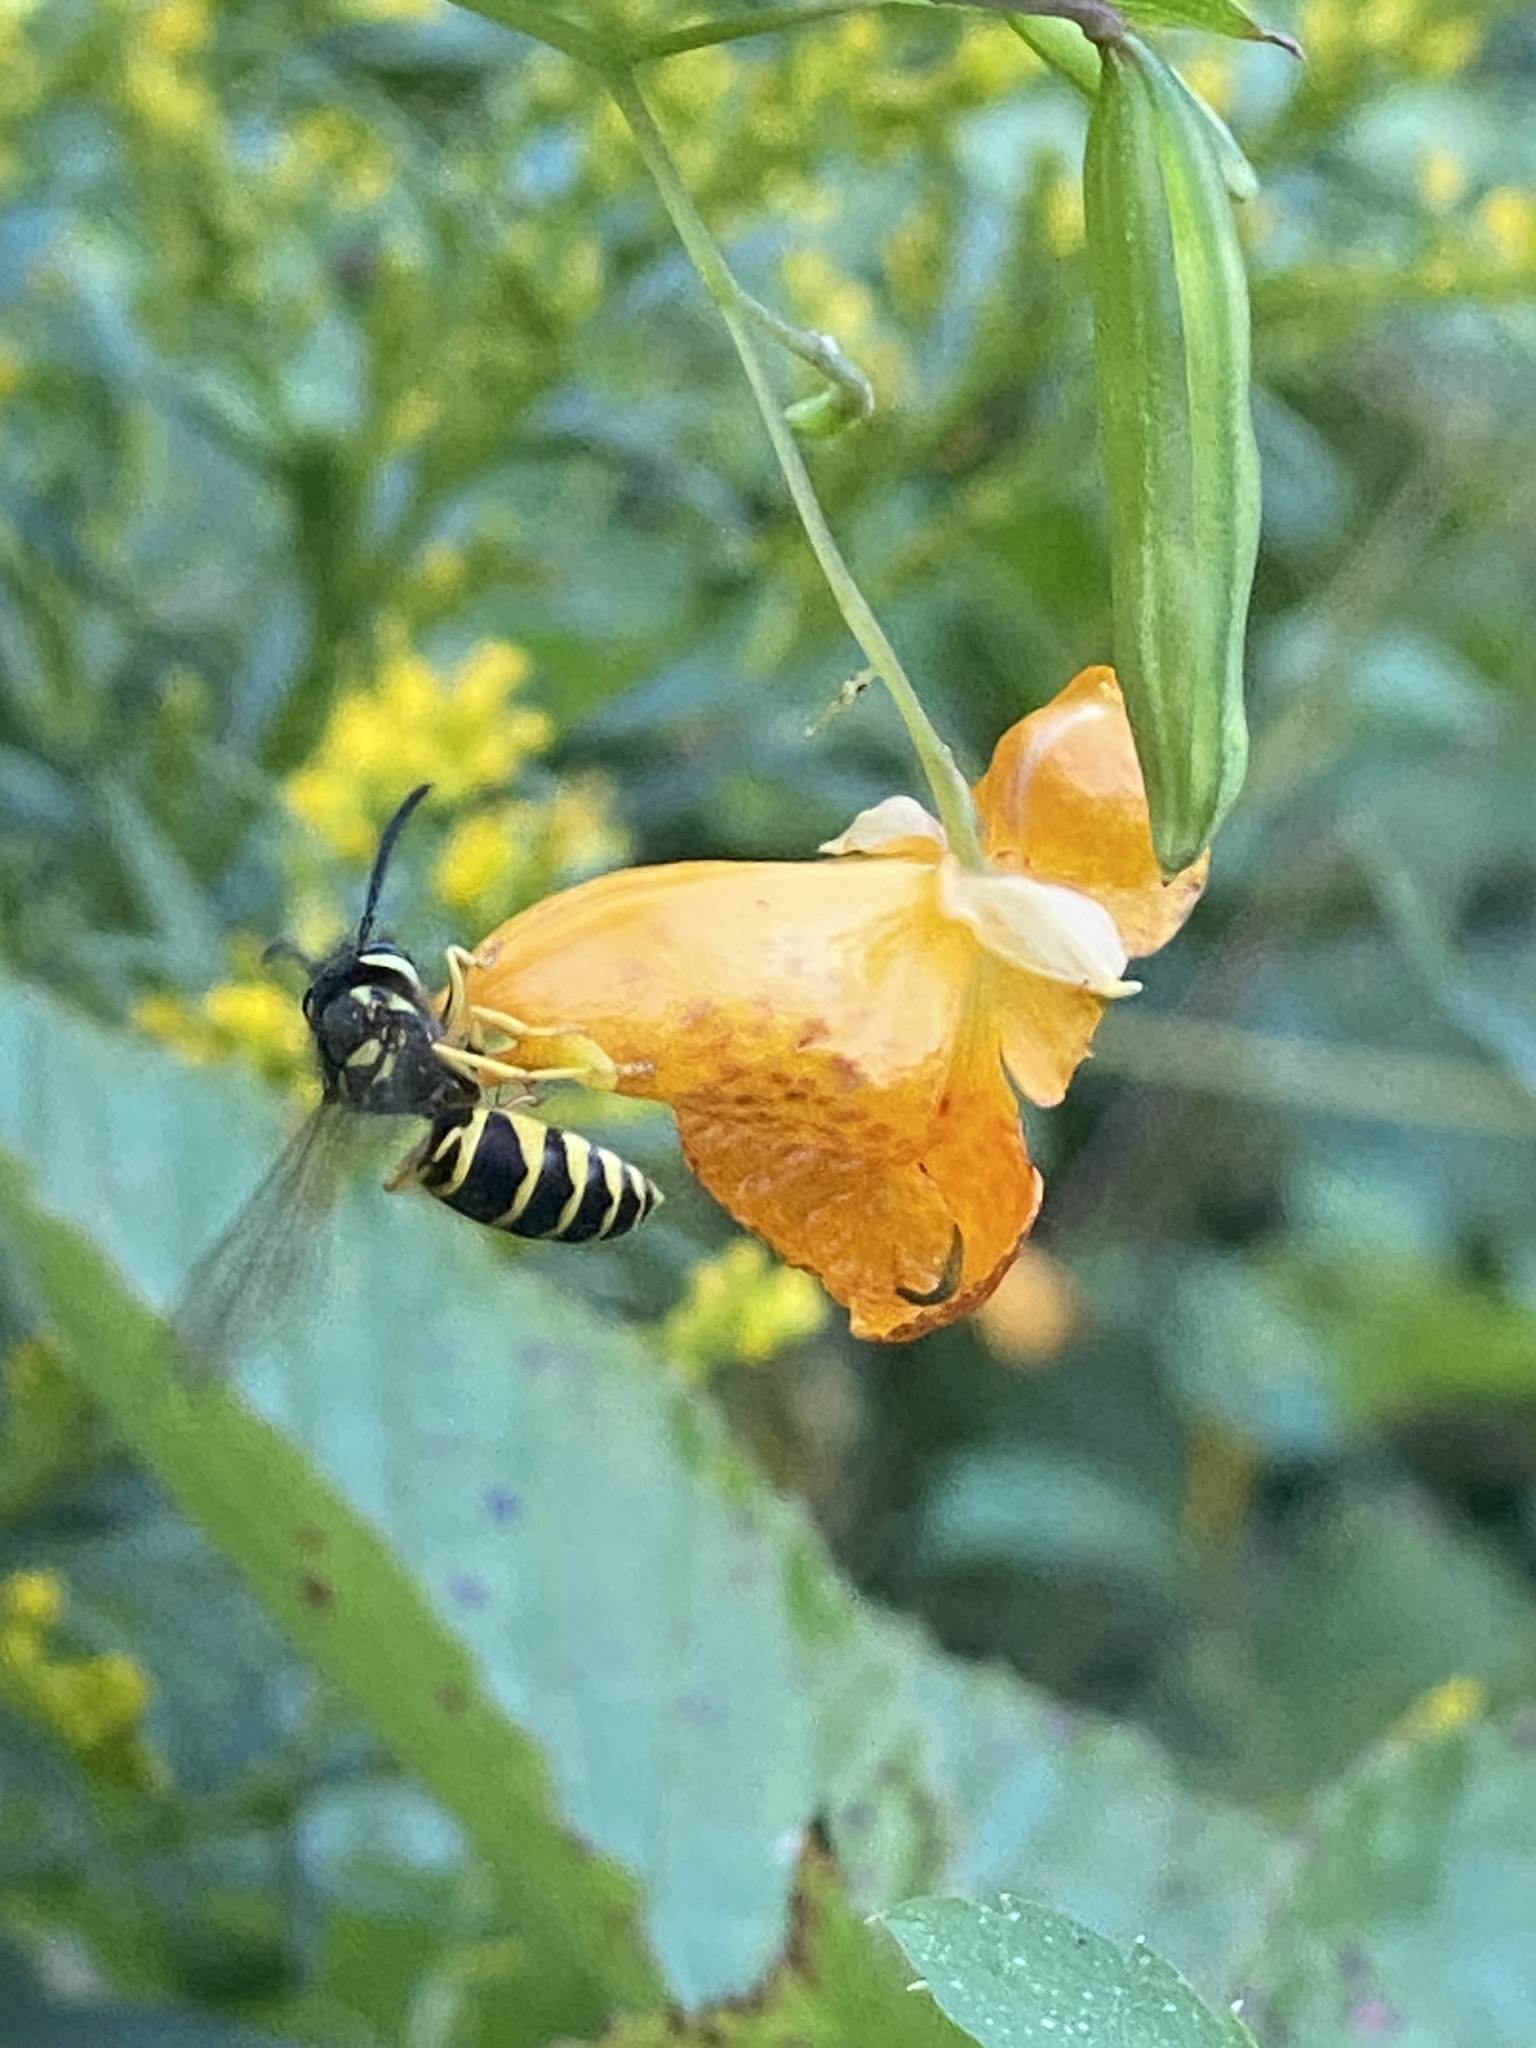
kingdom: Animalia
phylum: Arthropoda
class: Insecta
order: Hymenoptera
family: Vespidae
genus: Vespula
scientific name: Vespula maculifrons
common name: Eastern yellowjacket
